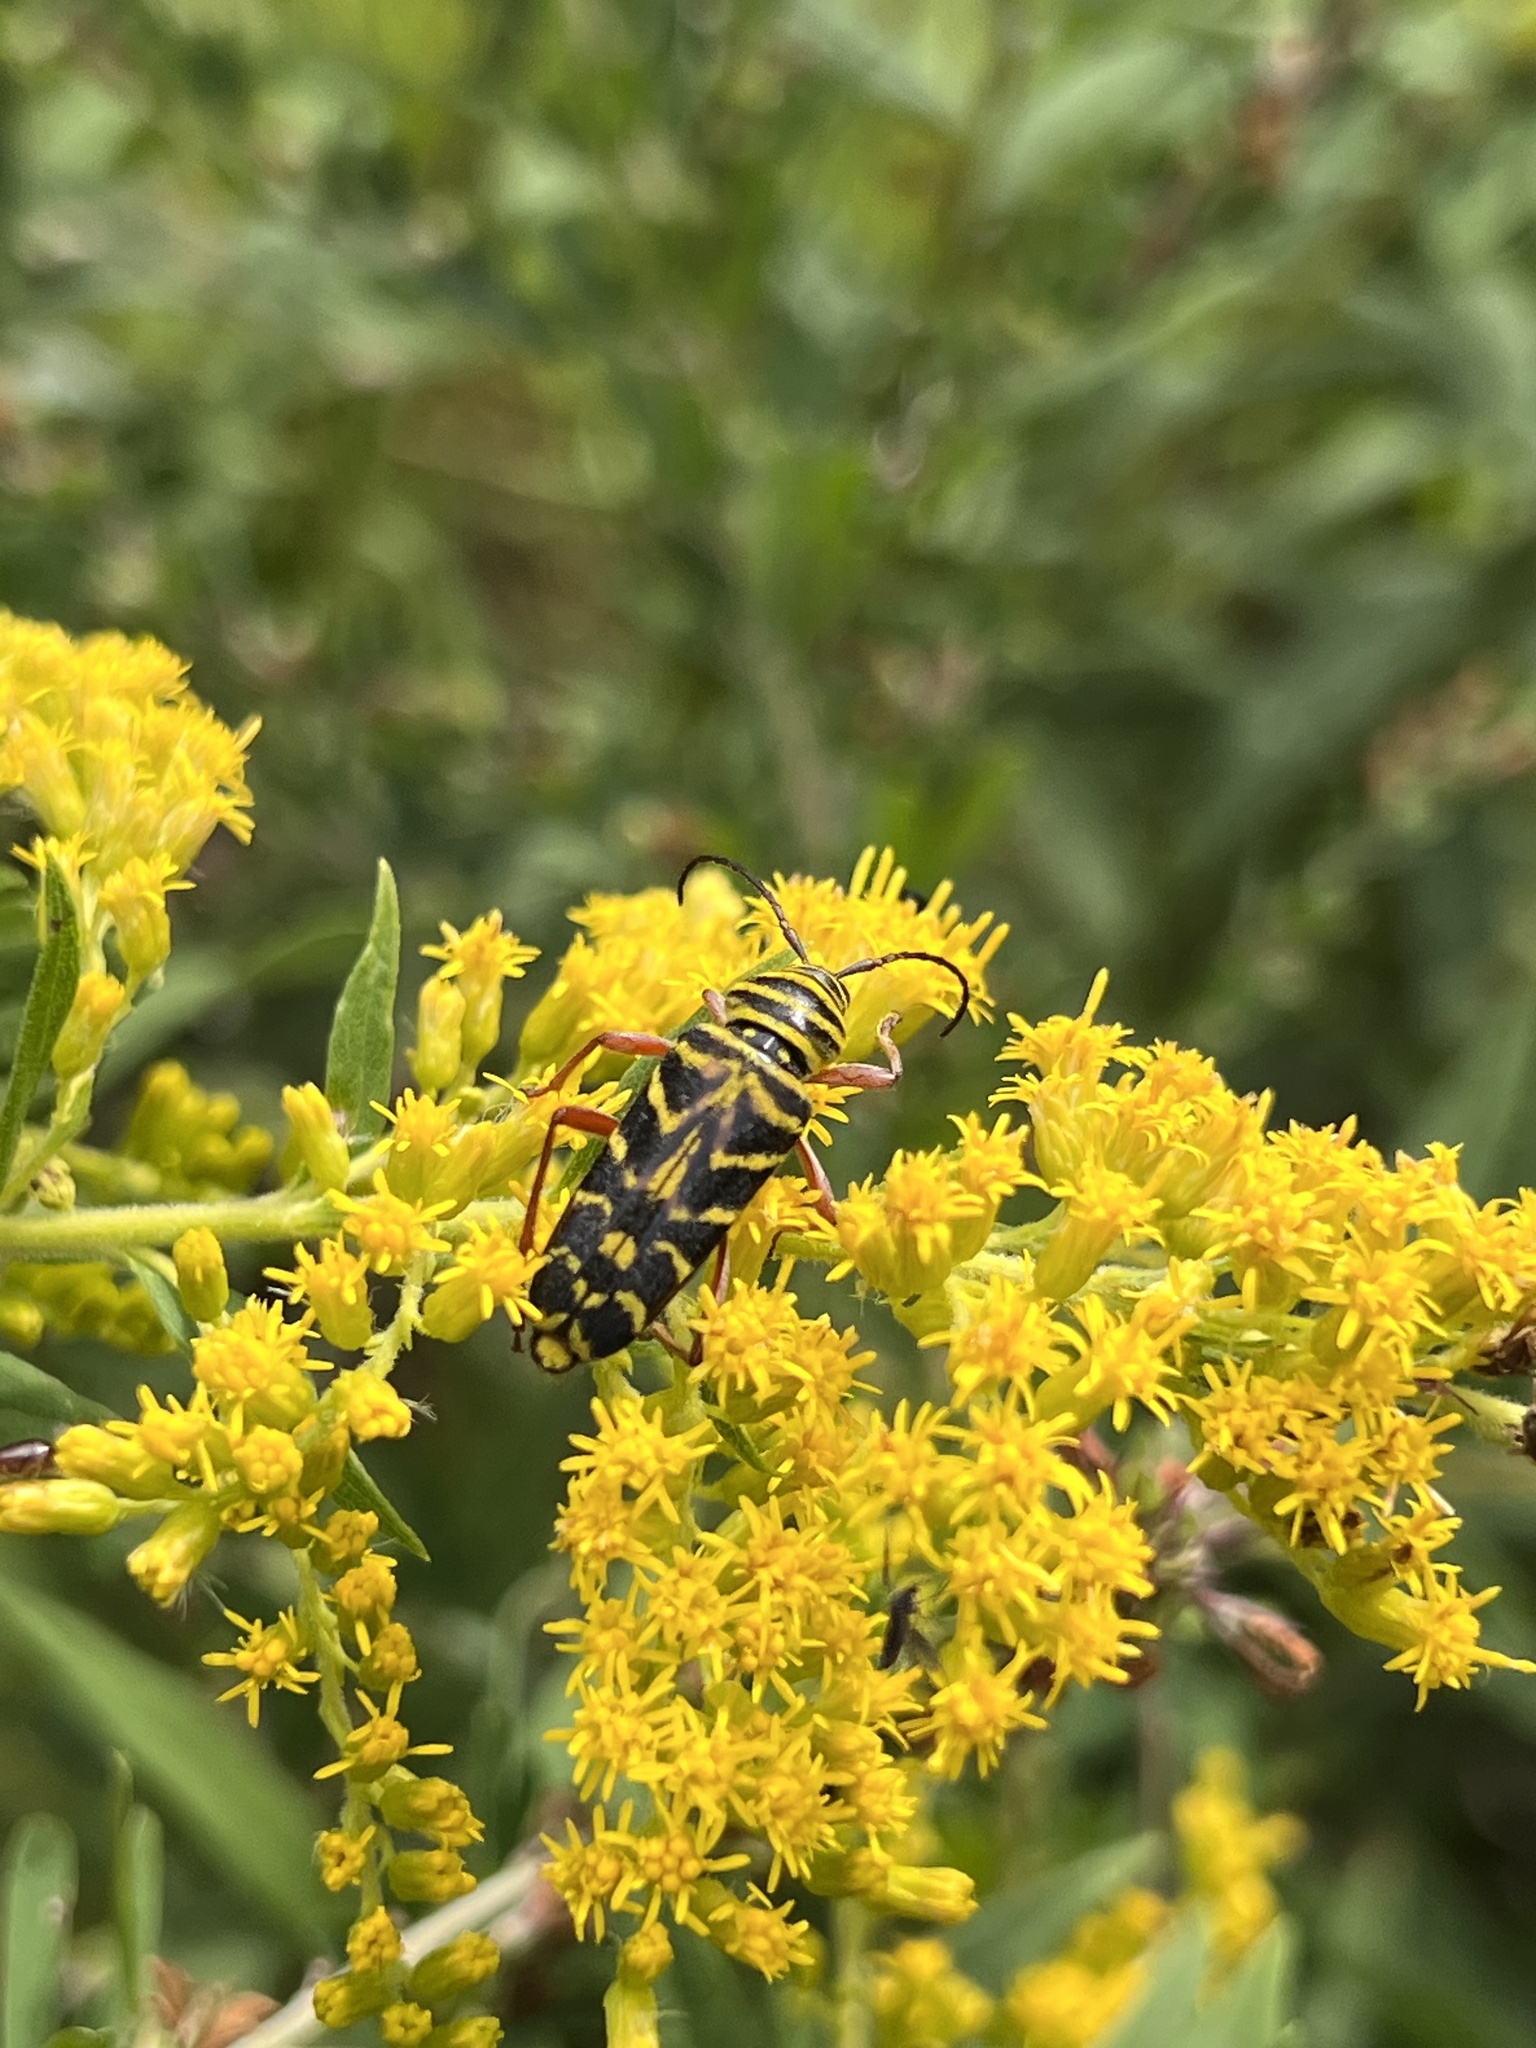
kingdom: Animalia
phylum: Arthropoda
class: Insecta
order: Coleoptera
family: Cerambycidae
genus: Megacyllene
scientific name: Megacyllene robiniae
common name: Locust borer
